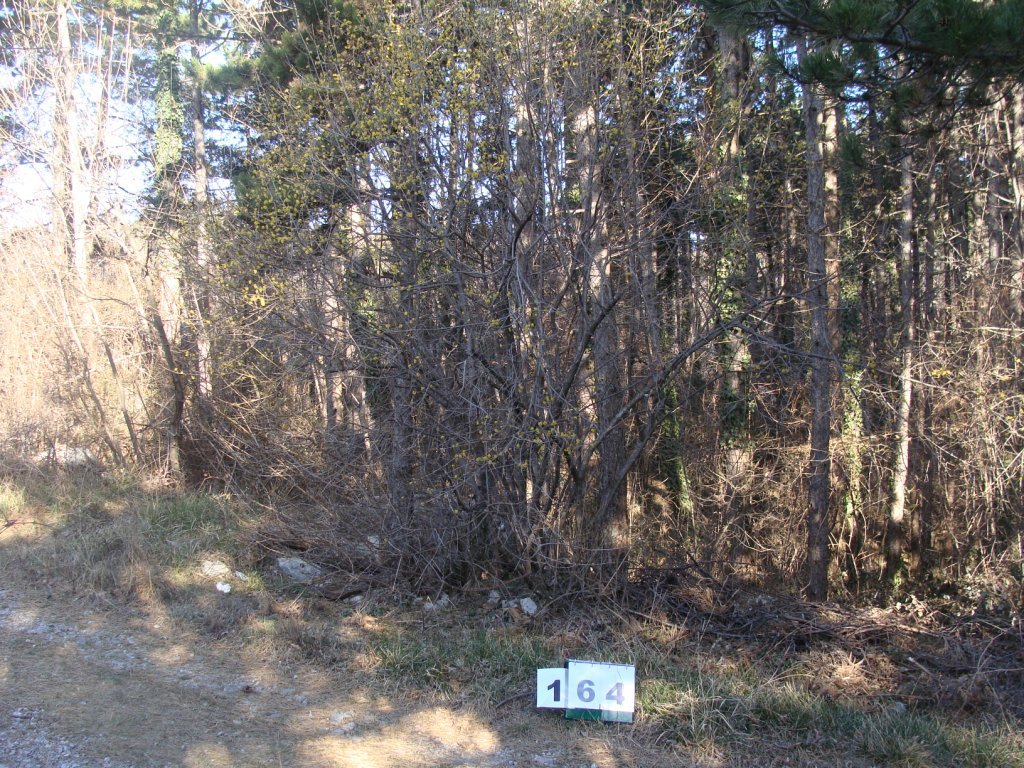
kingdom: Plantae
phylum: Tracheophyta
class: Magnoliopsida
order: Cornales
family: Cornaceae
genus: Cornus
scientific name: Cornus mas
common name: Cornelian-cherry
